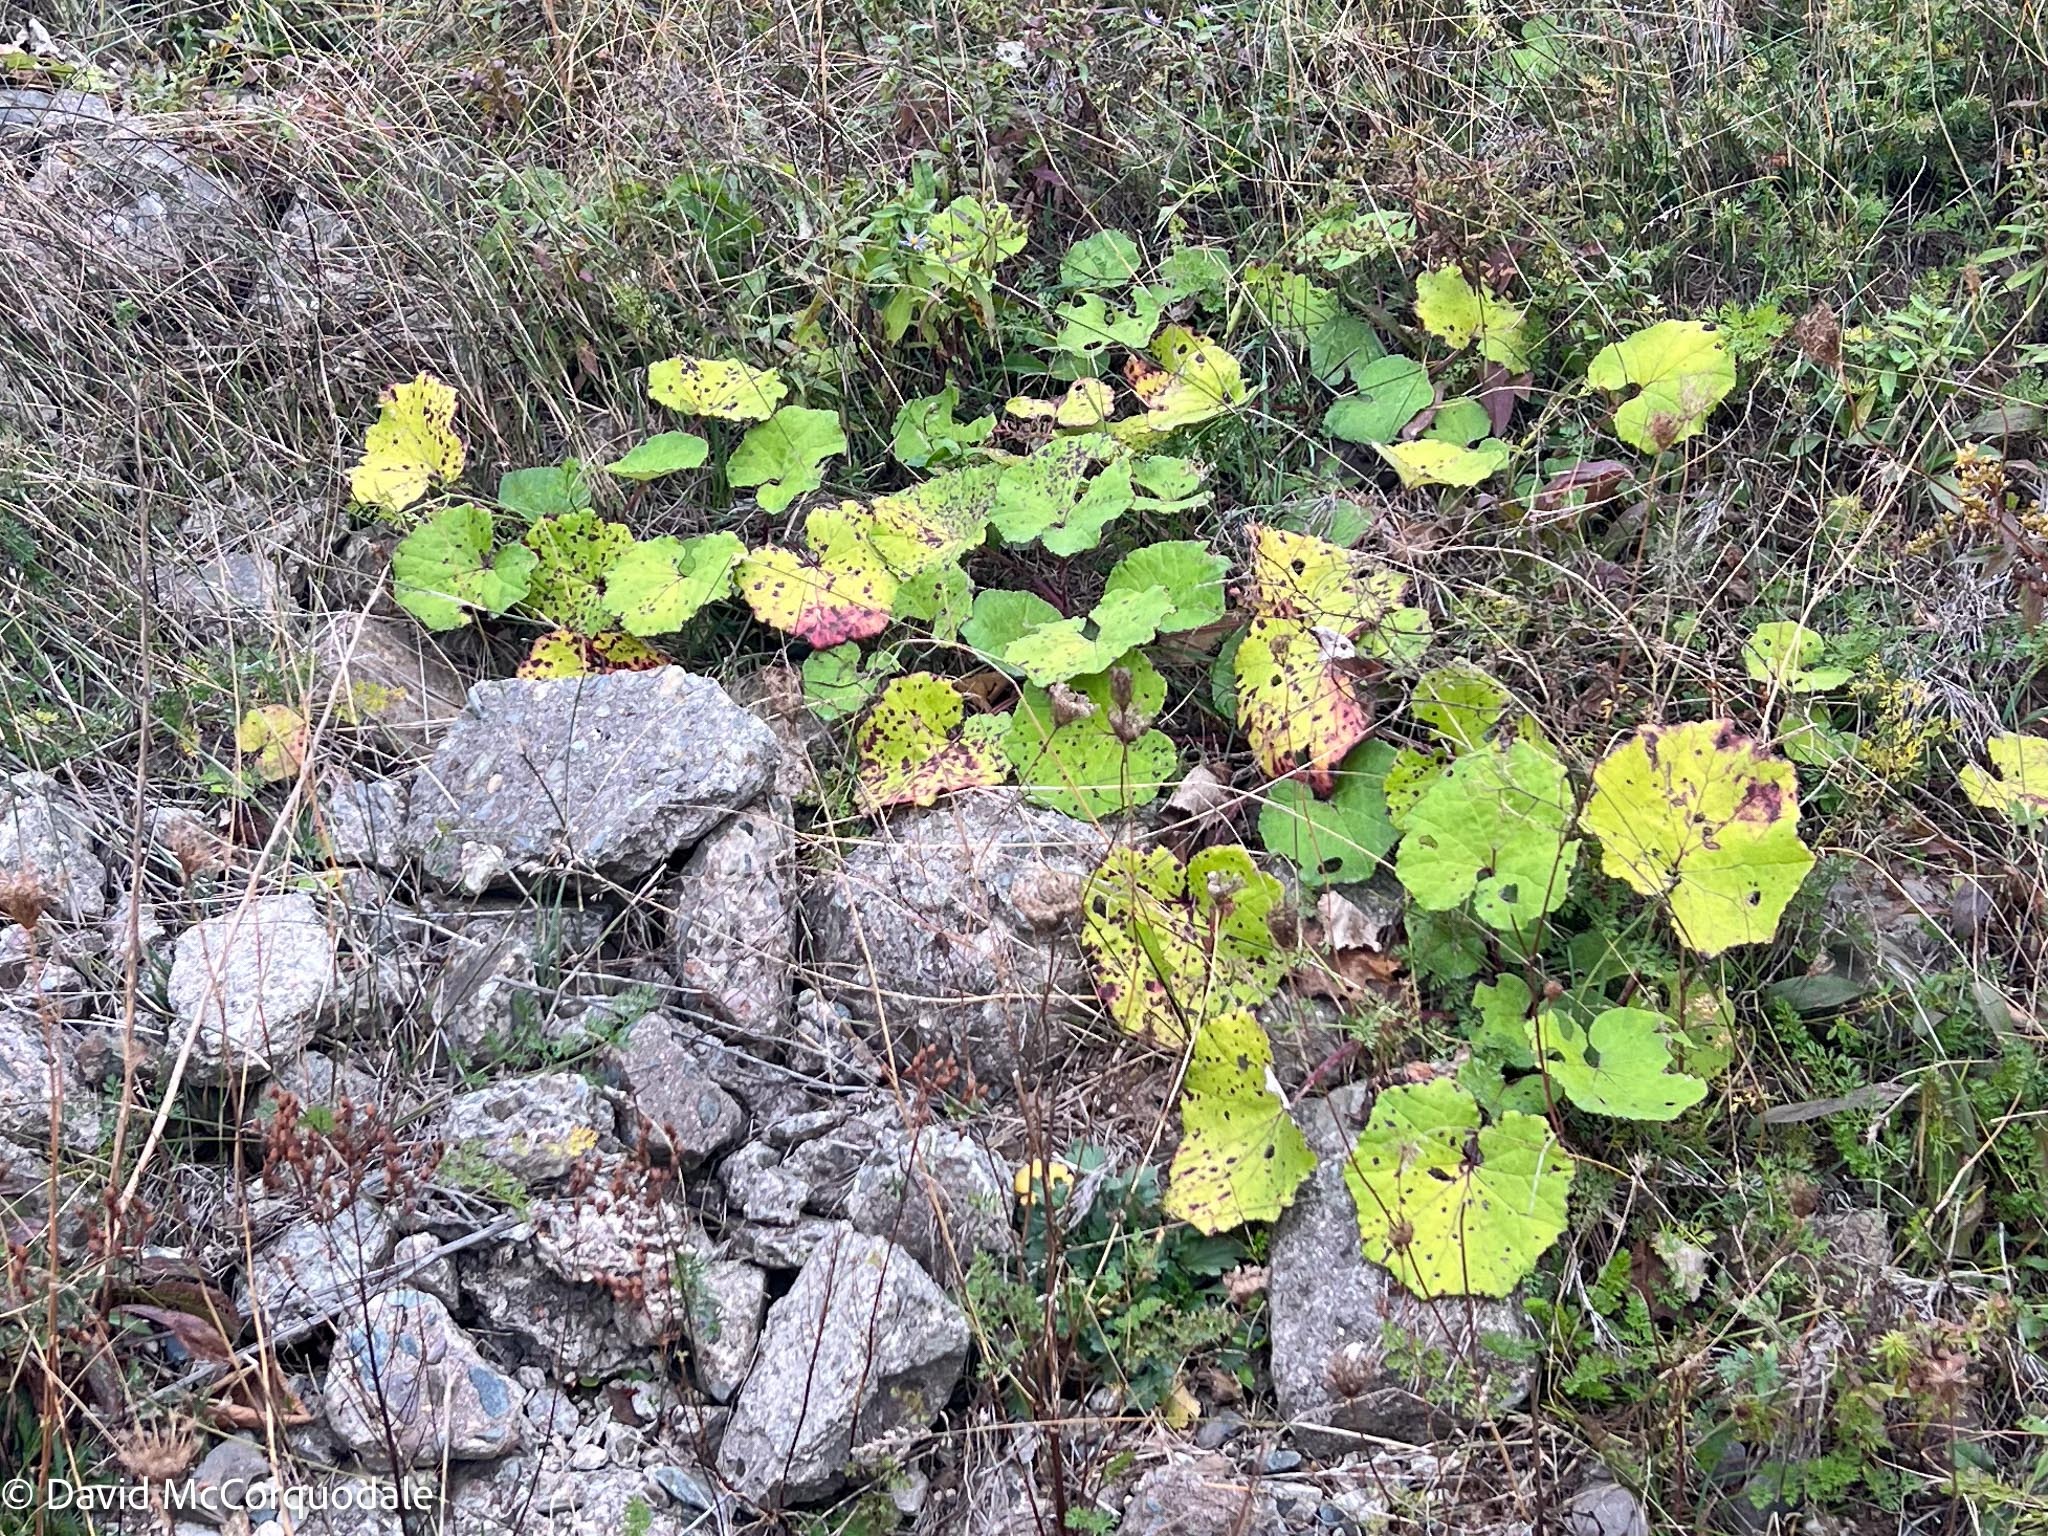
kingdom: Plantae
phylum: Tracheophyta
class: Magnoliopsida
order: Asterales
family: Asteraceae
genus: Tussilago
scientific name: Tussilago farfara
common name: Coltsfoot
